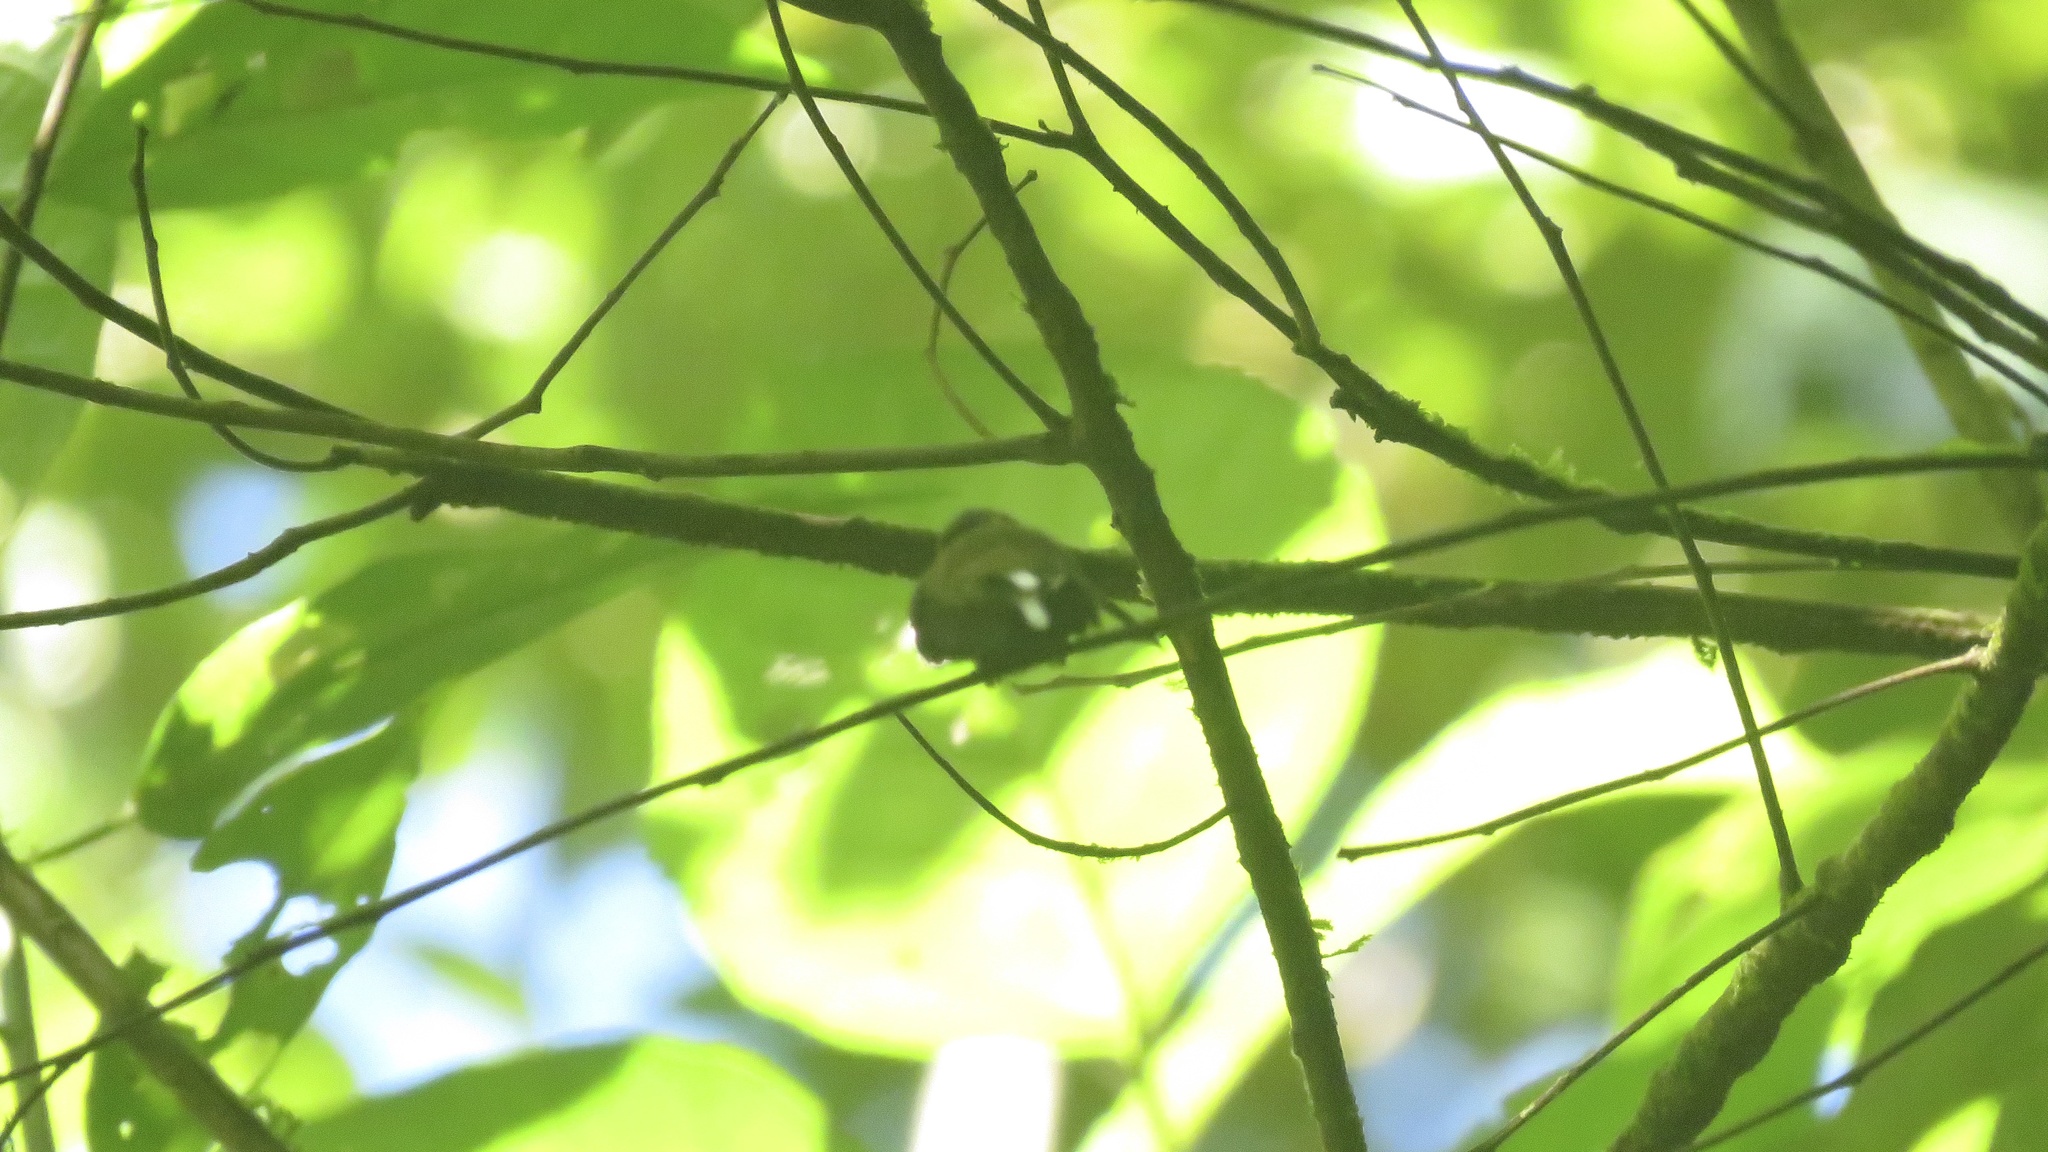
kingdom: Animalia
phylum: Chordata
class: Aves
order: Apodiformes
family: Trochilidae
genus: Phaethornis
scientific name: Phaethornis longirostris
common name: Long-billed hermit
